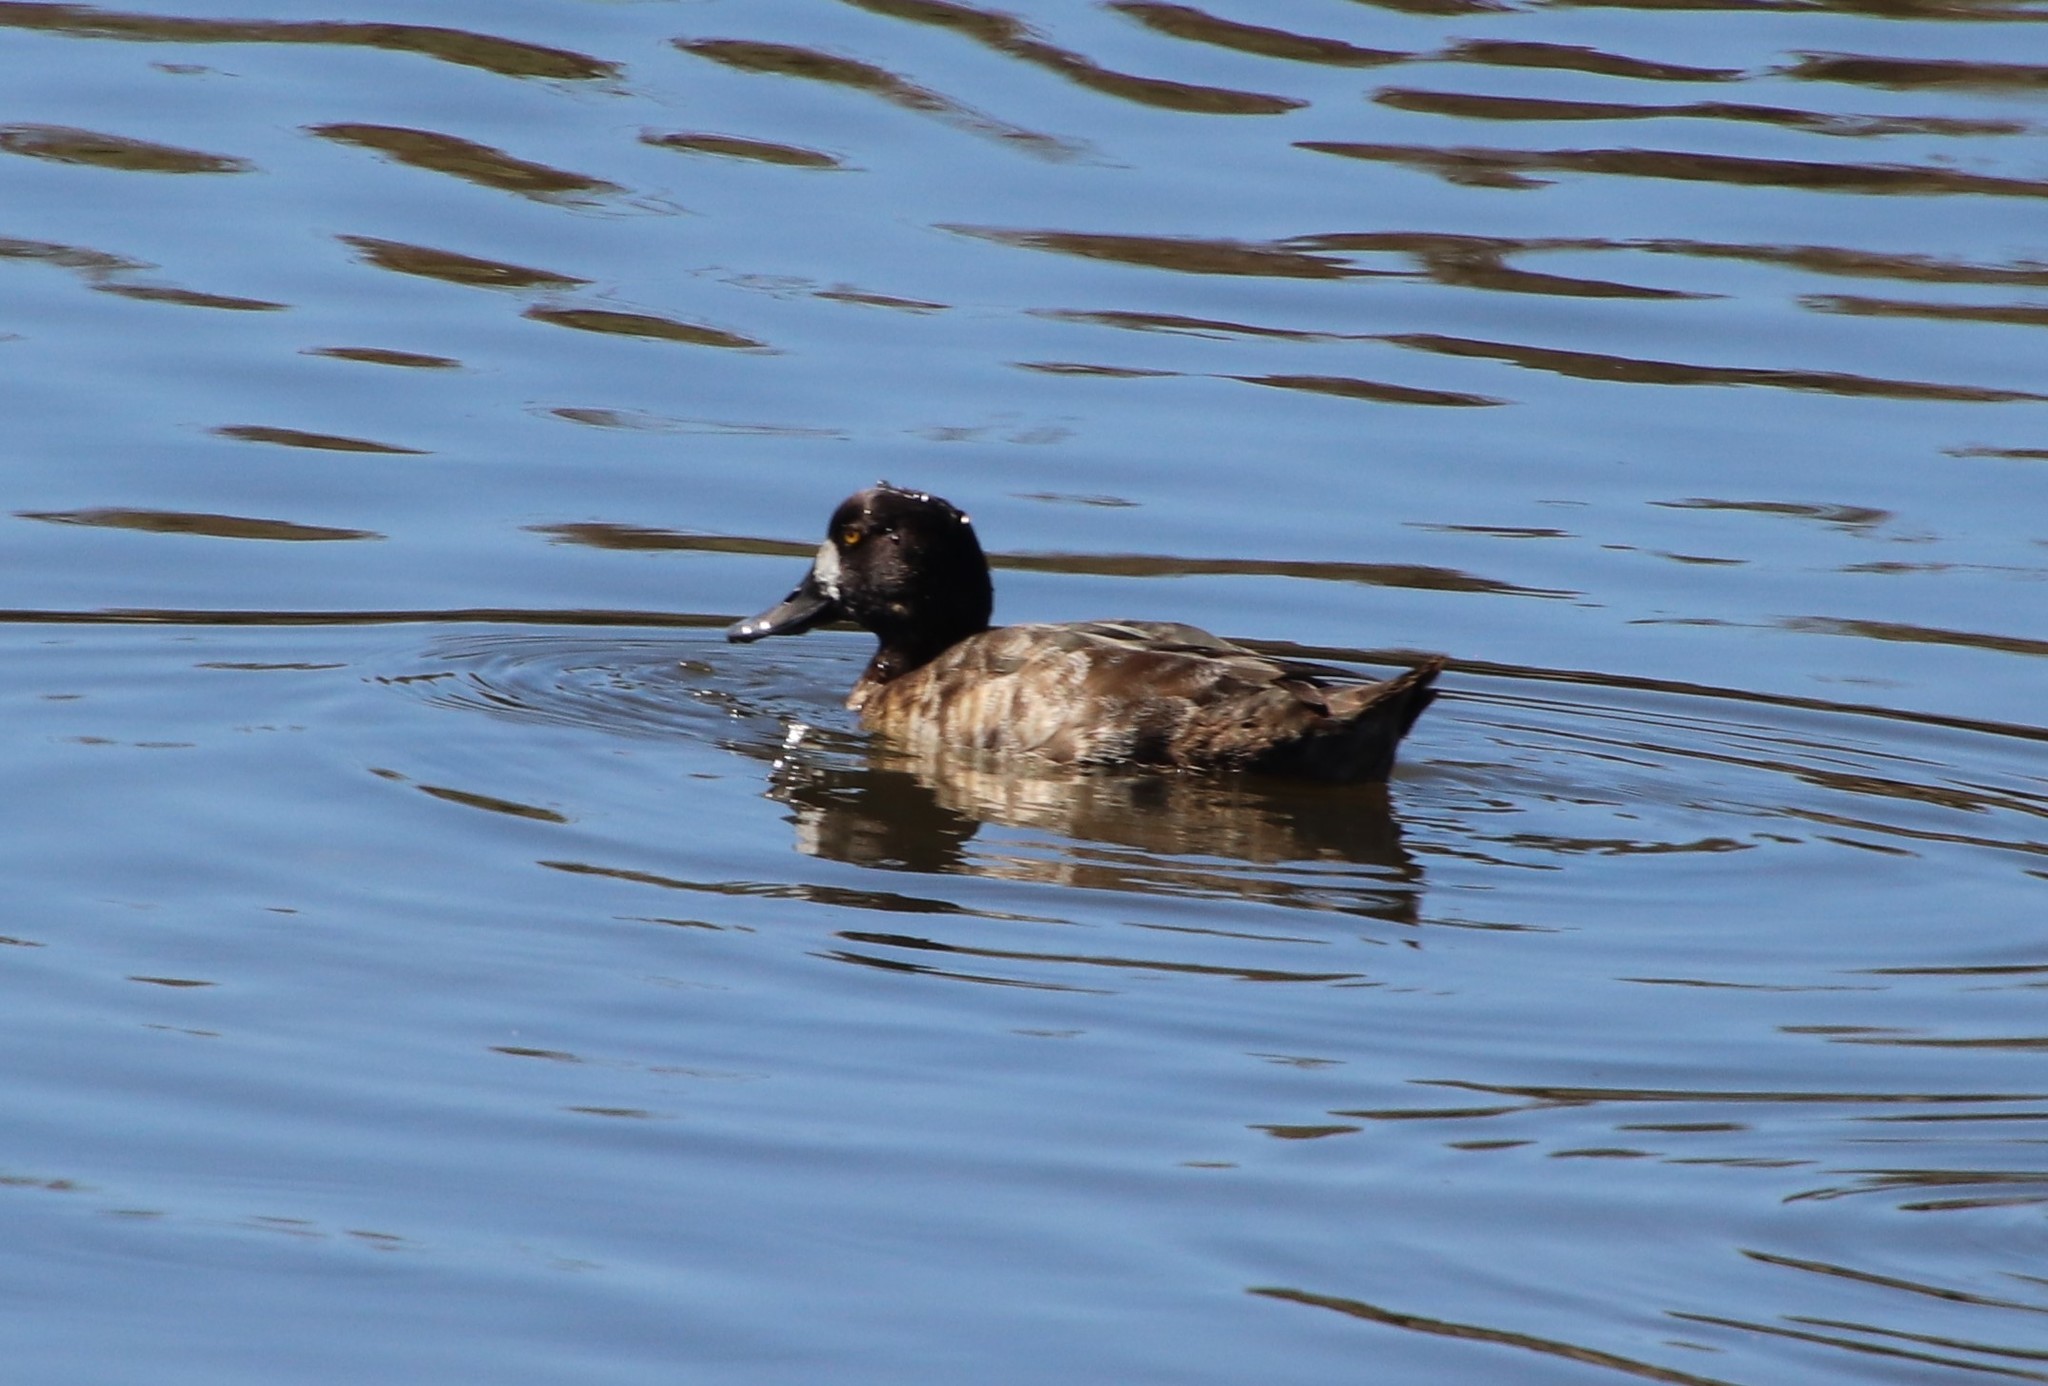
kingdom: Animalia
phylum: Chordata
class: Aves
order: Anseriformes
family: Anatidae
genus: Aythya
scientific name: Aythya marila
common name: Greater scaup
